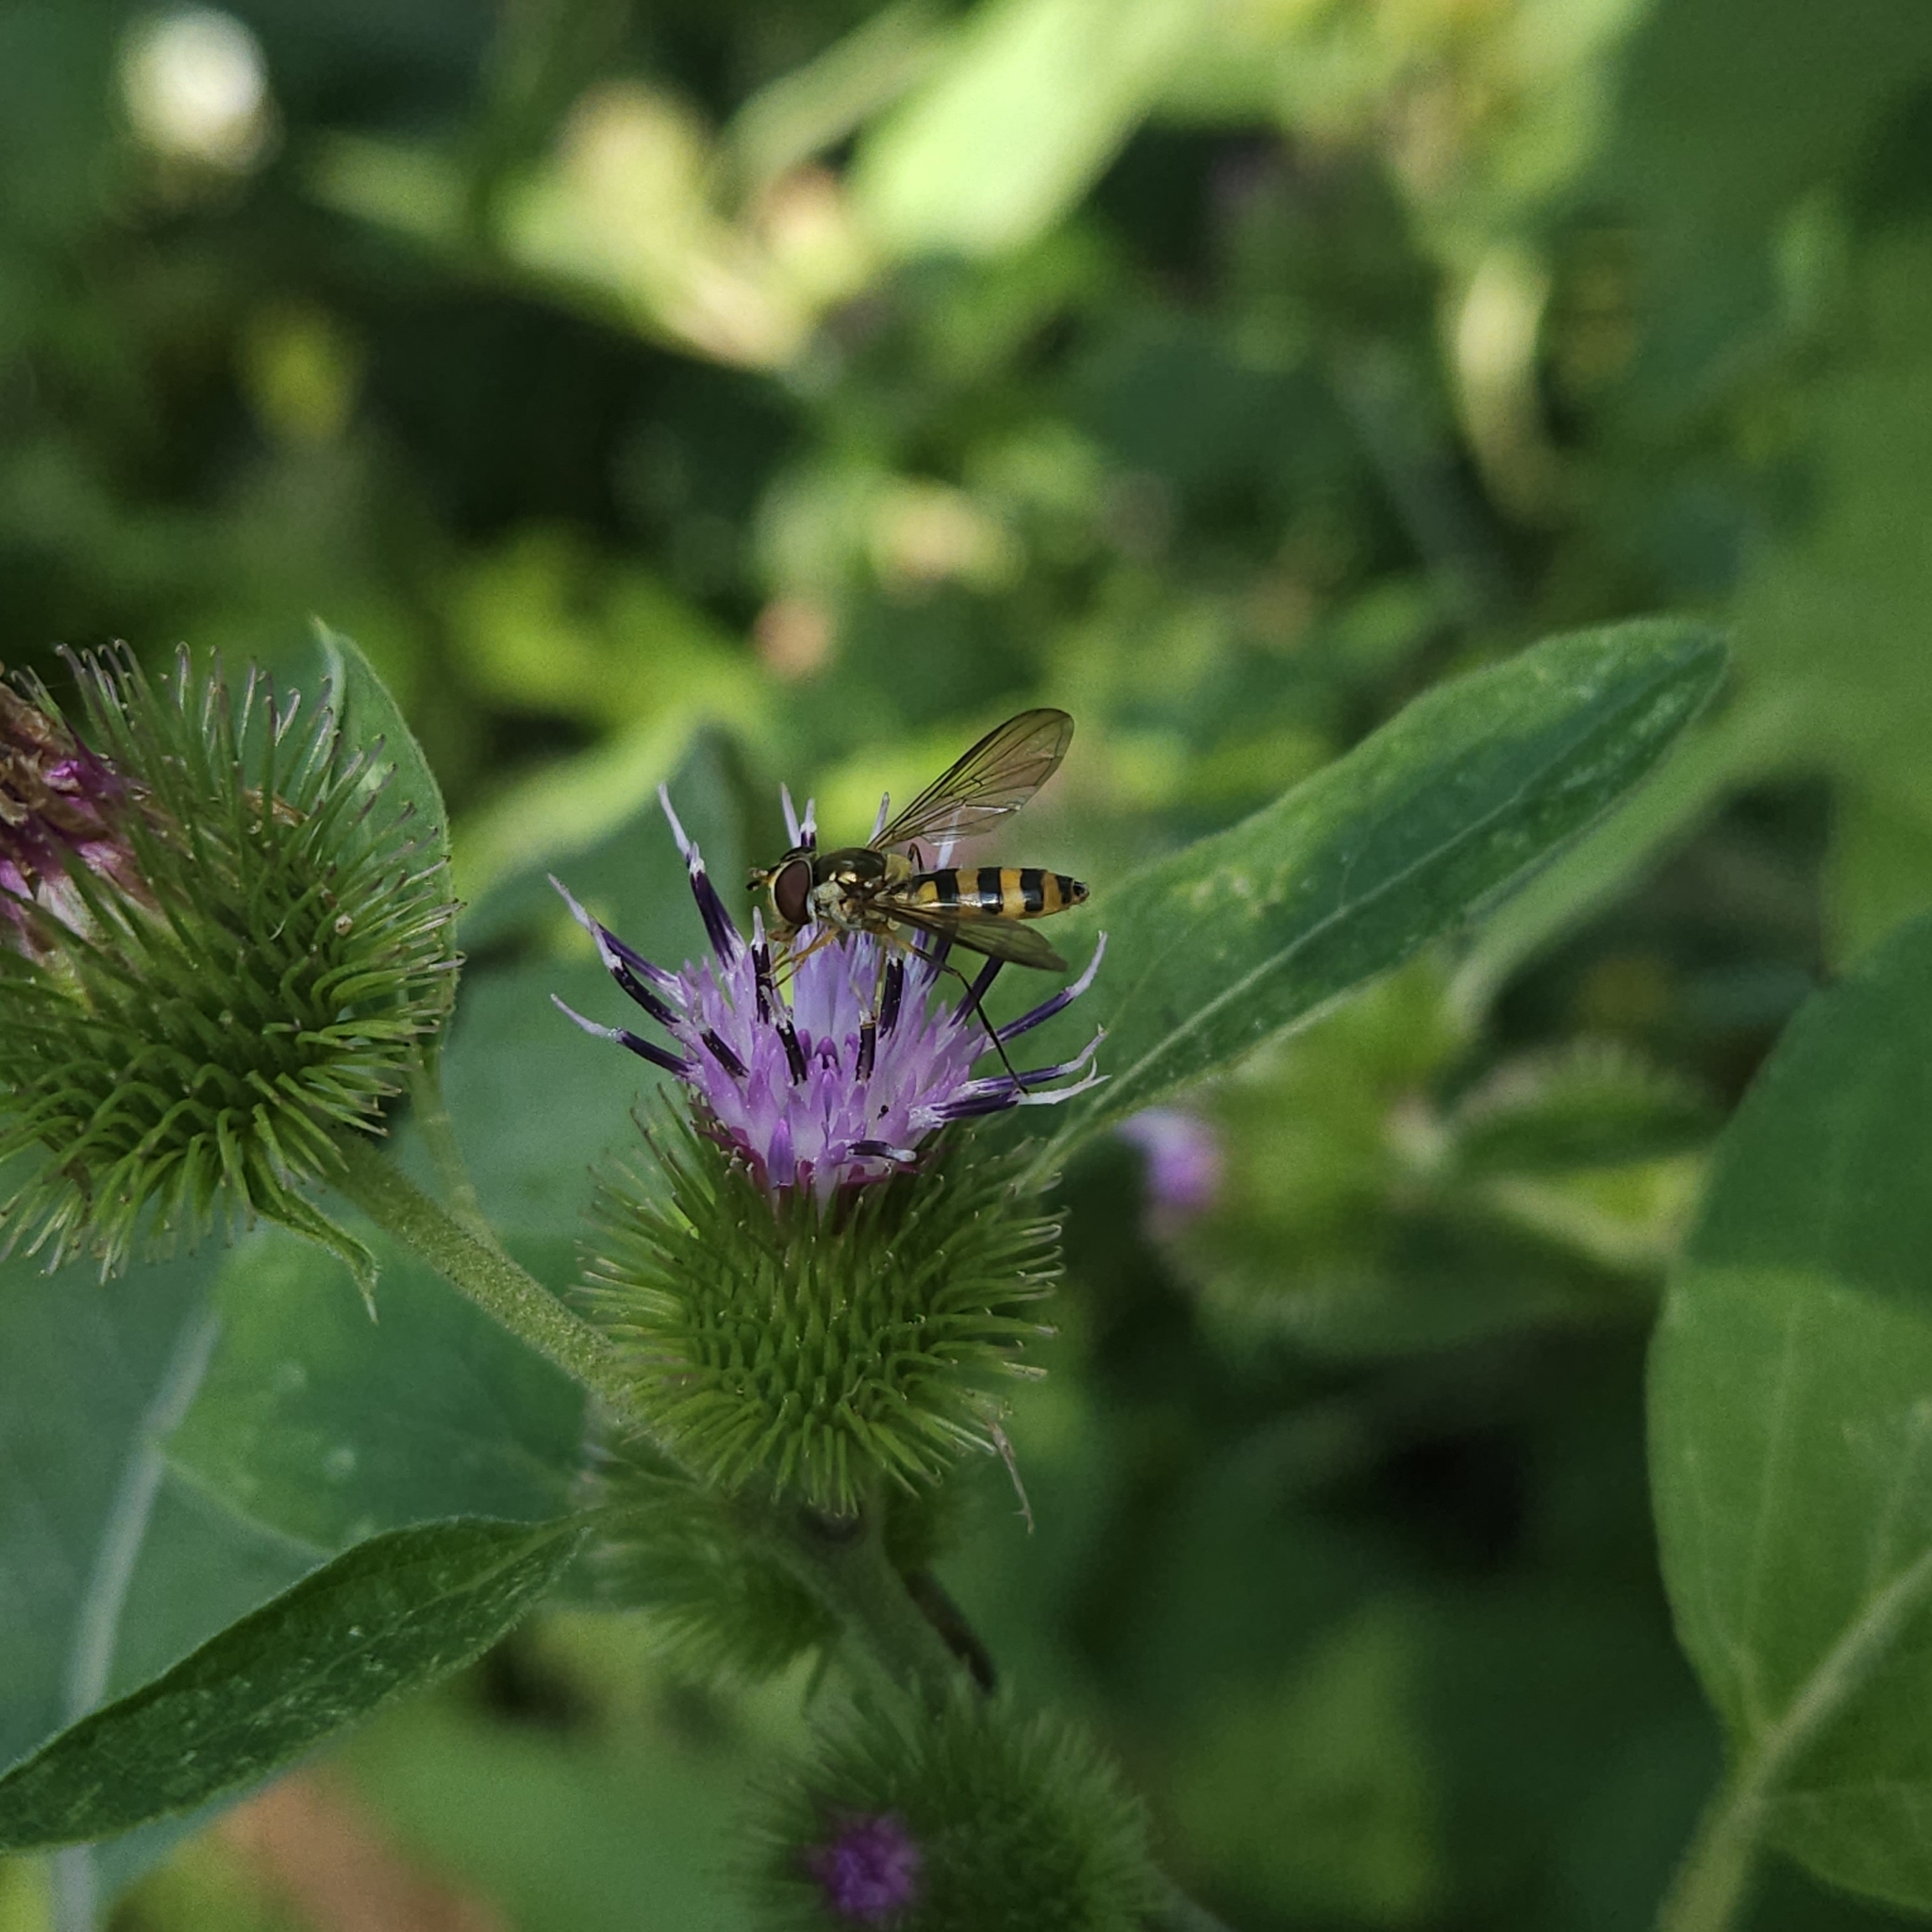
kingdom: Animalia
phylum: Arthropoda
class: Insecta
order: Diptera
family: Syrphidae
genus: Meliscaeva
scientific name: Meliscaeva cinctella
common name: American thintail fly
